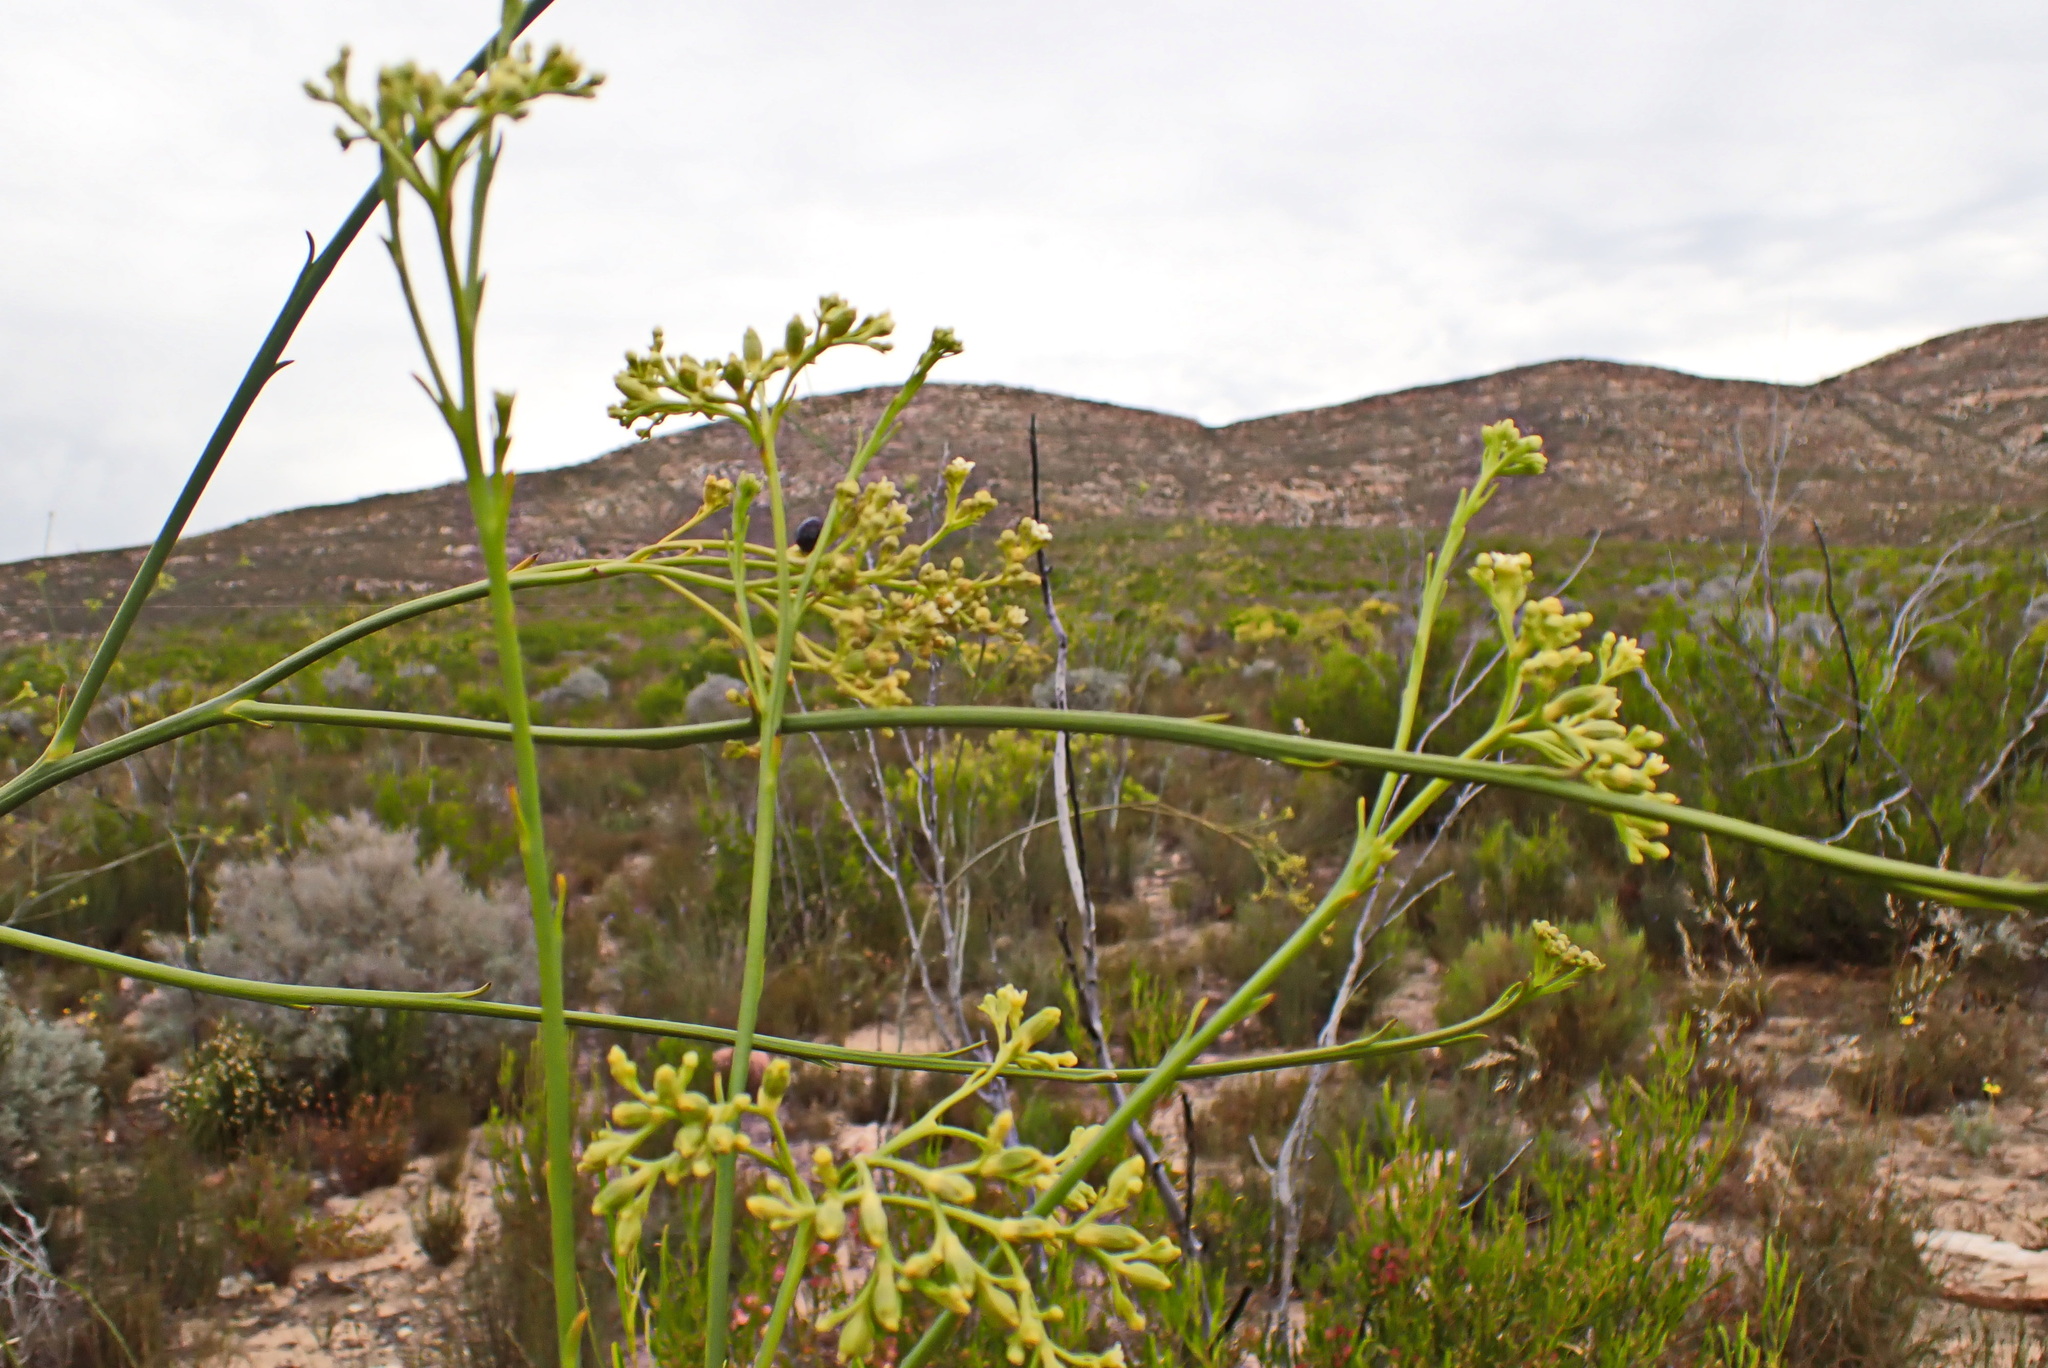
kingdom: Plantae
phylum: Tracheophyta
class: Magnoliopsida
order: Santalales
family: Thesiaceae
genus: Thesium
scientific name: Thesium strictum
